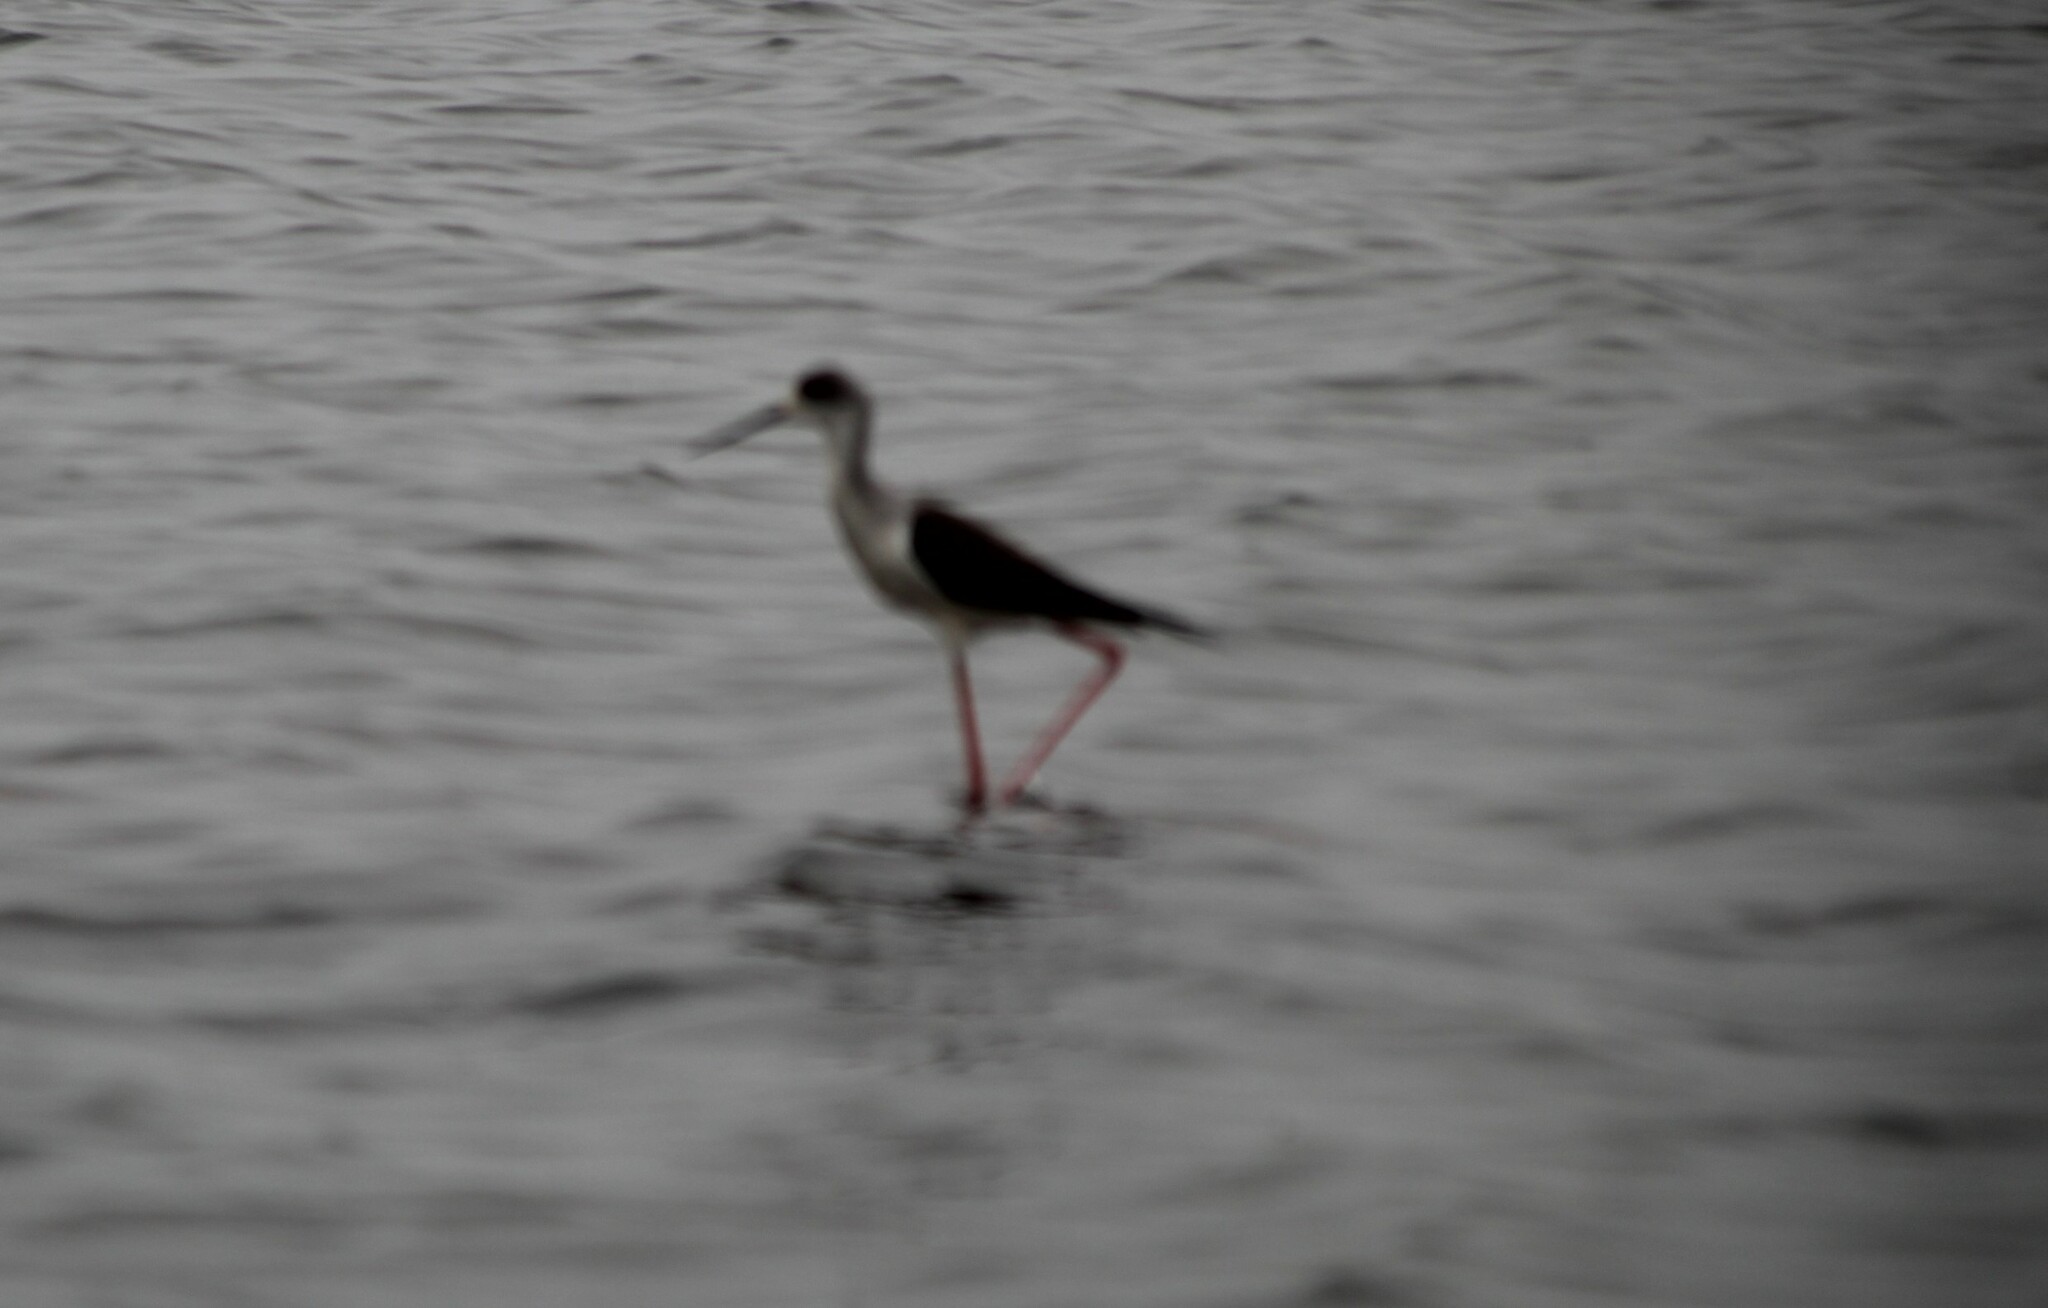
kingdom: Animalia
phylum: Chordata
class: Aves
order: Charadriiformes
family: Recurvirostridae
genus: Himantopus
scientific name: Himantopus himantopus
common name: Black-winged stilt
